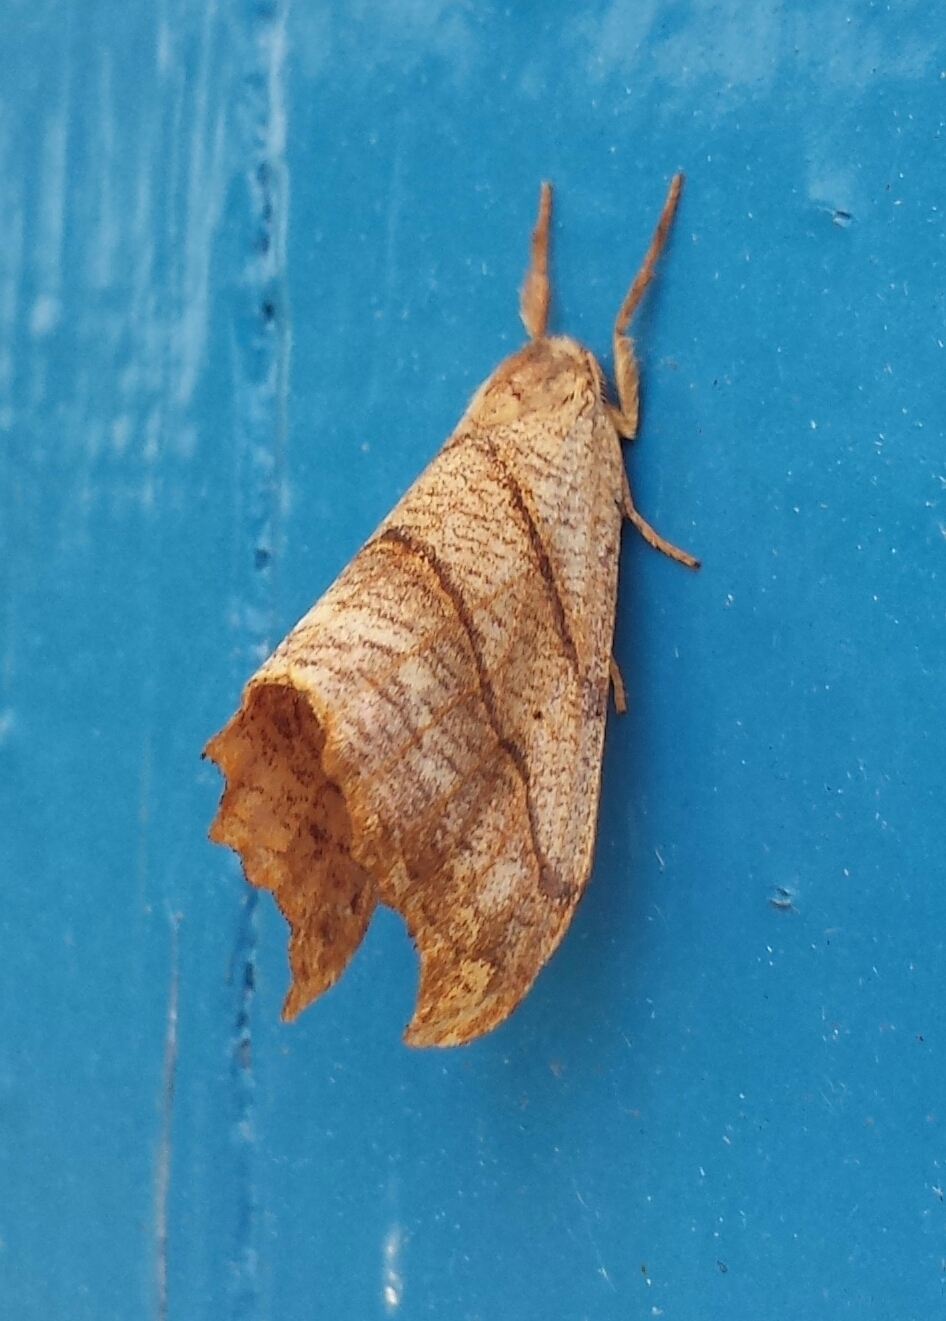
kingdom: Animalia
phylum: Arthropoda
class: Insecta
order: Lepidoptera
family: Drepanidae
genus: Falcaria
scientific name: Falcaria bilineata
